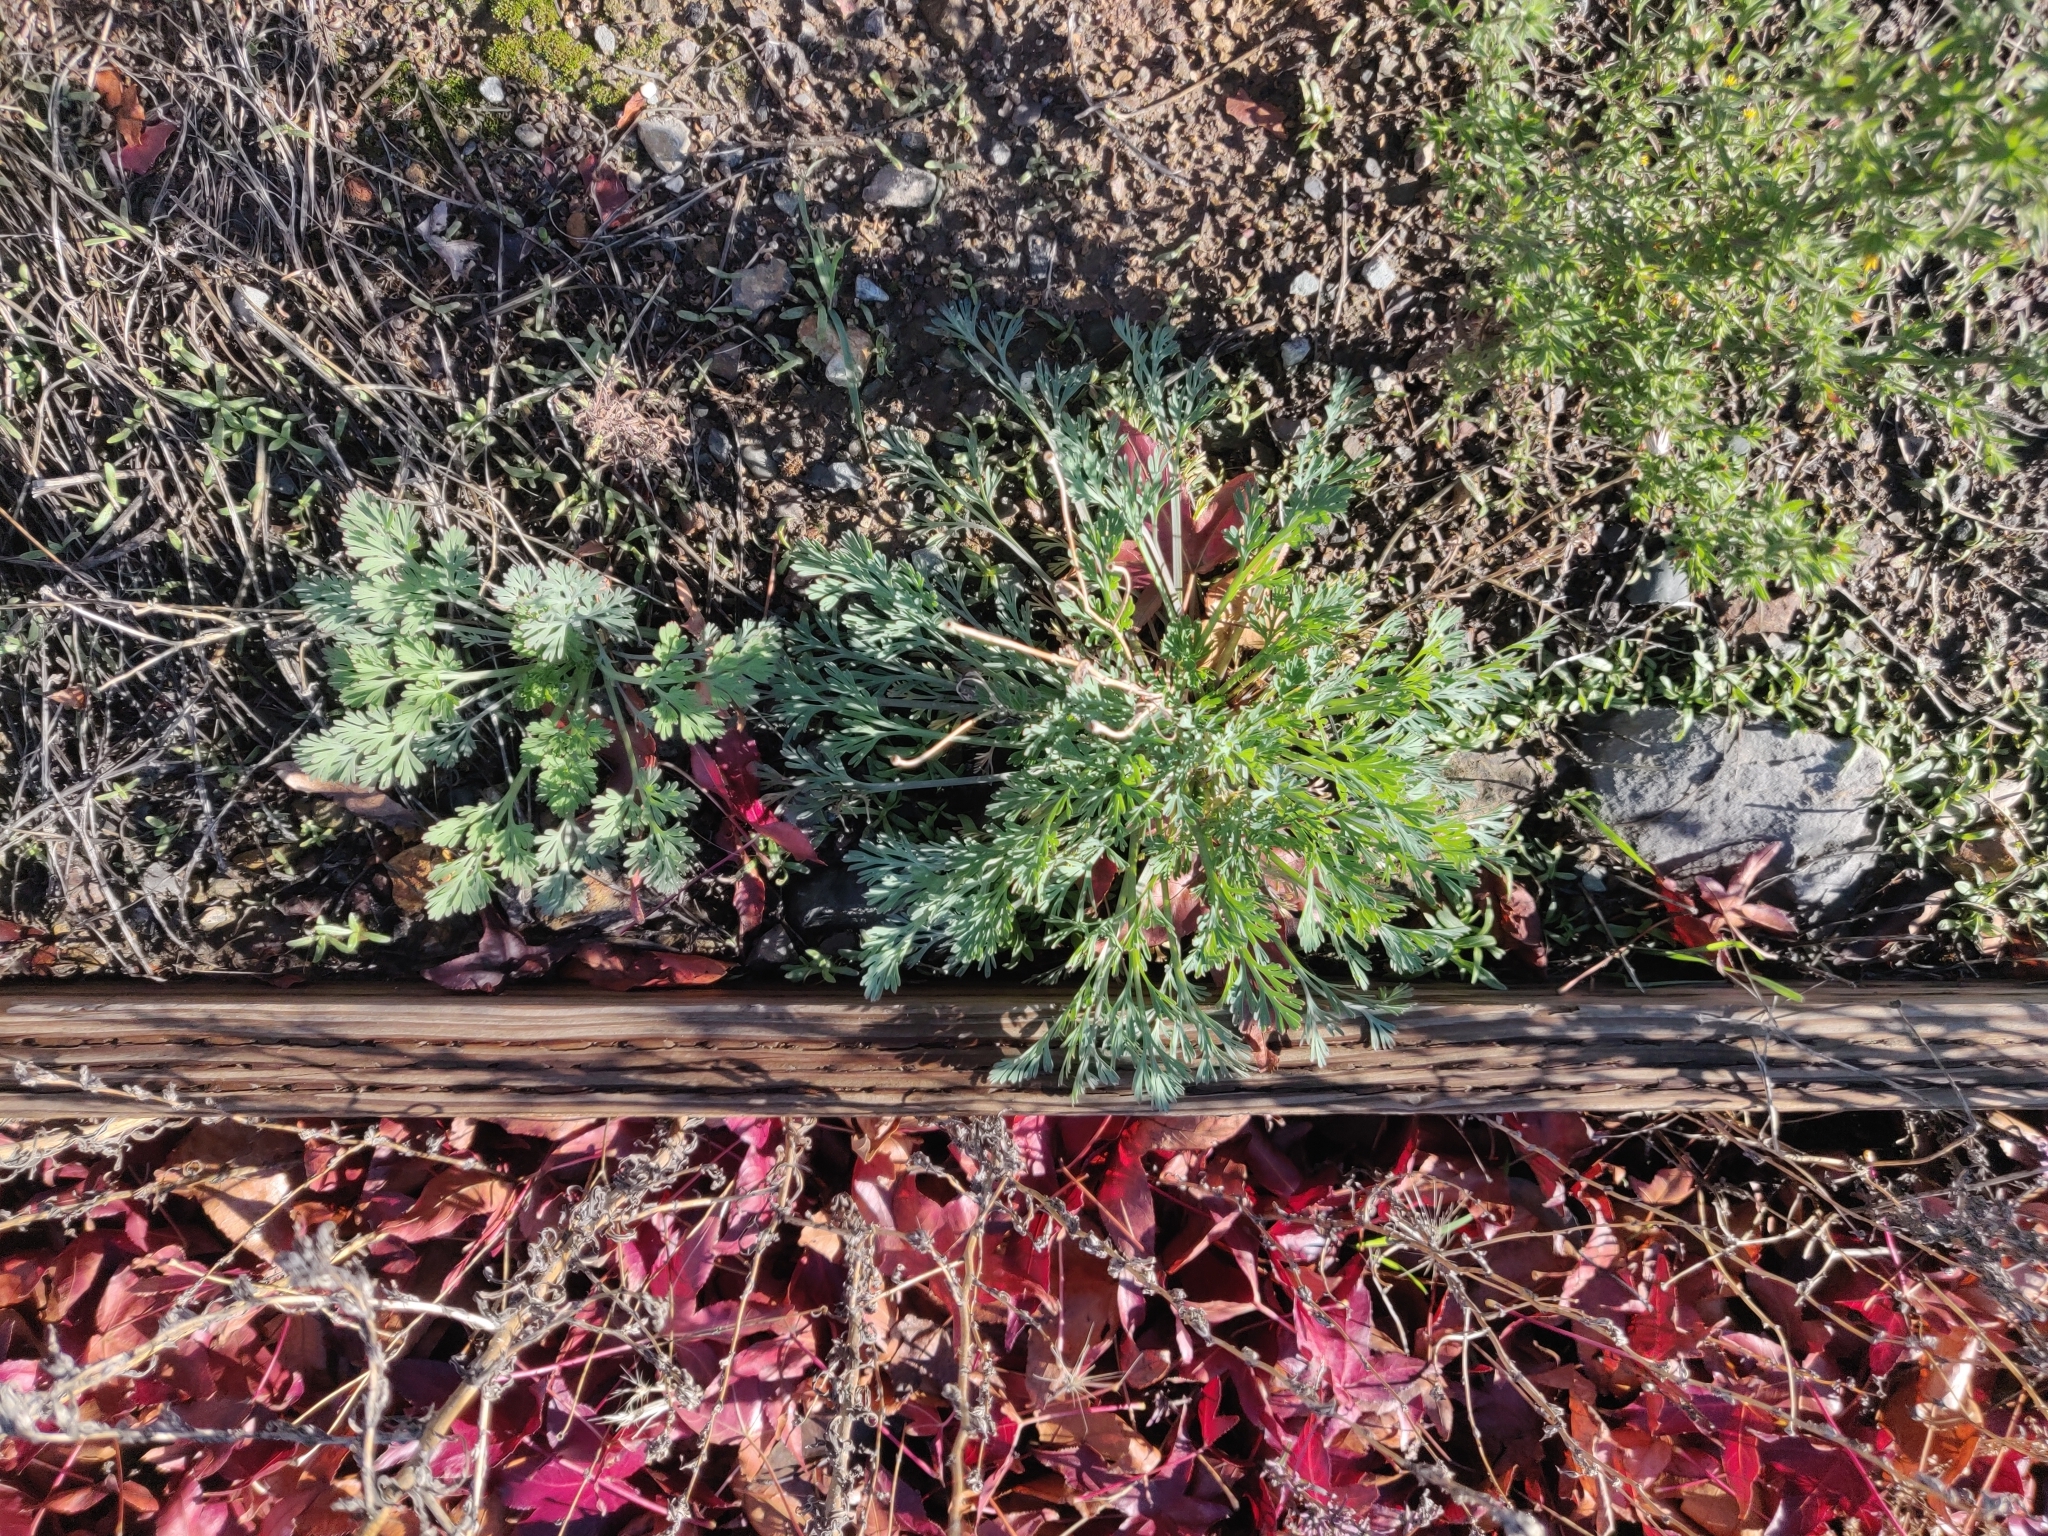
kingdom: Plantae
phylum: Tracheophyta
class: Magnoliopsida
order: Ranunculales
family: Papaveraceae
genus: Eschscholzia
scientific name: Eschscholzia californica
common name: California poppy
